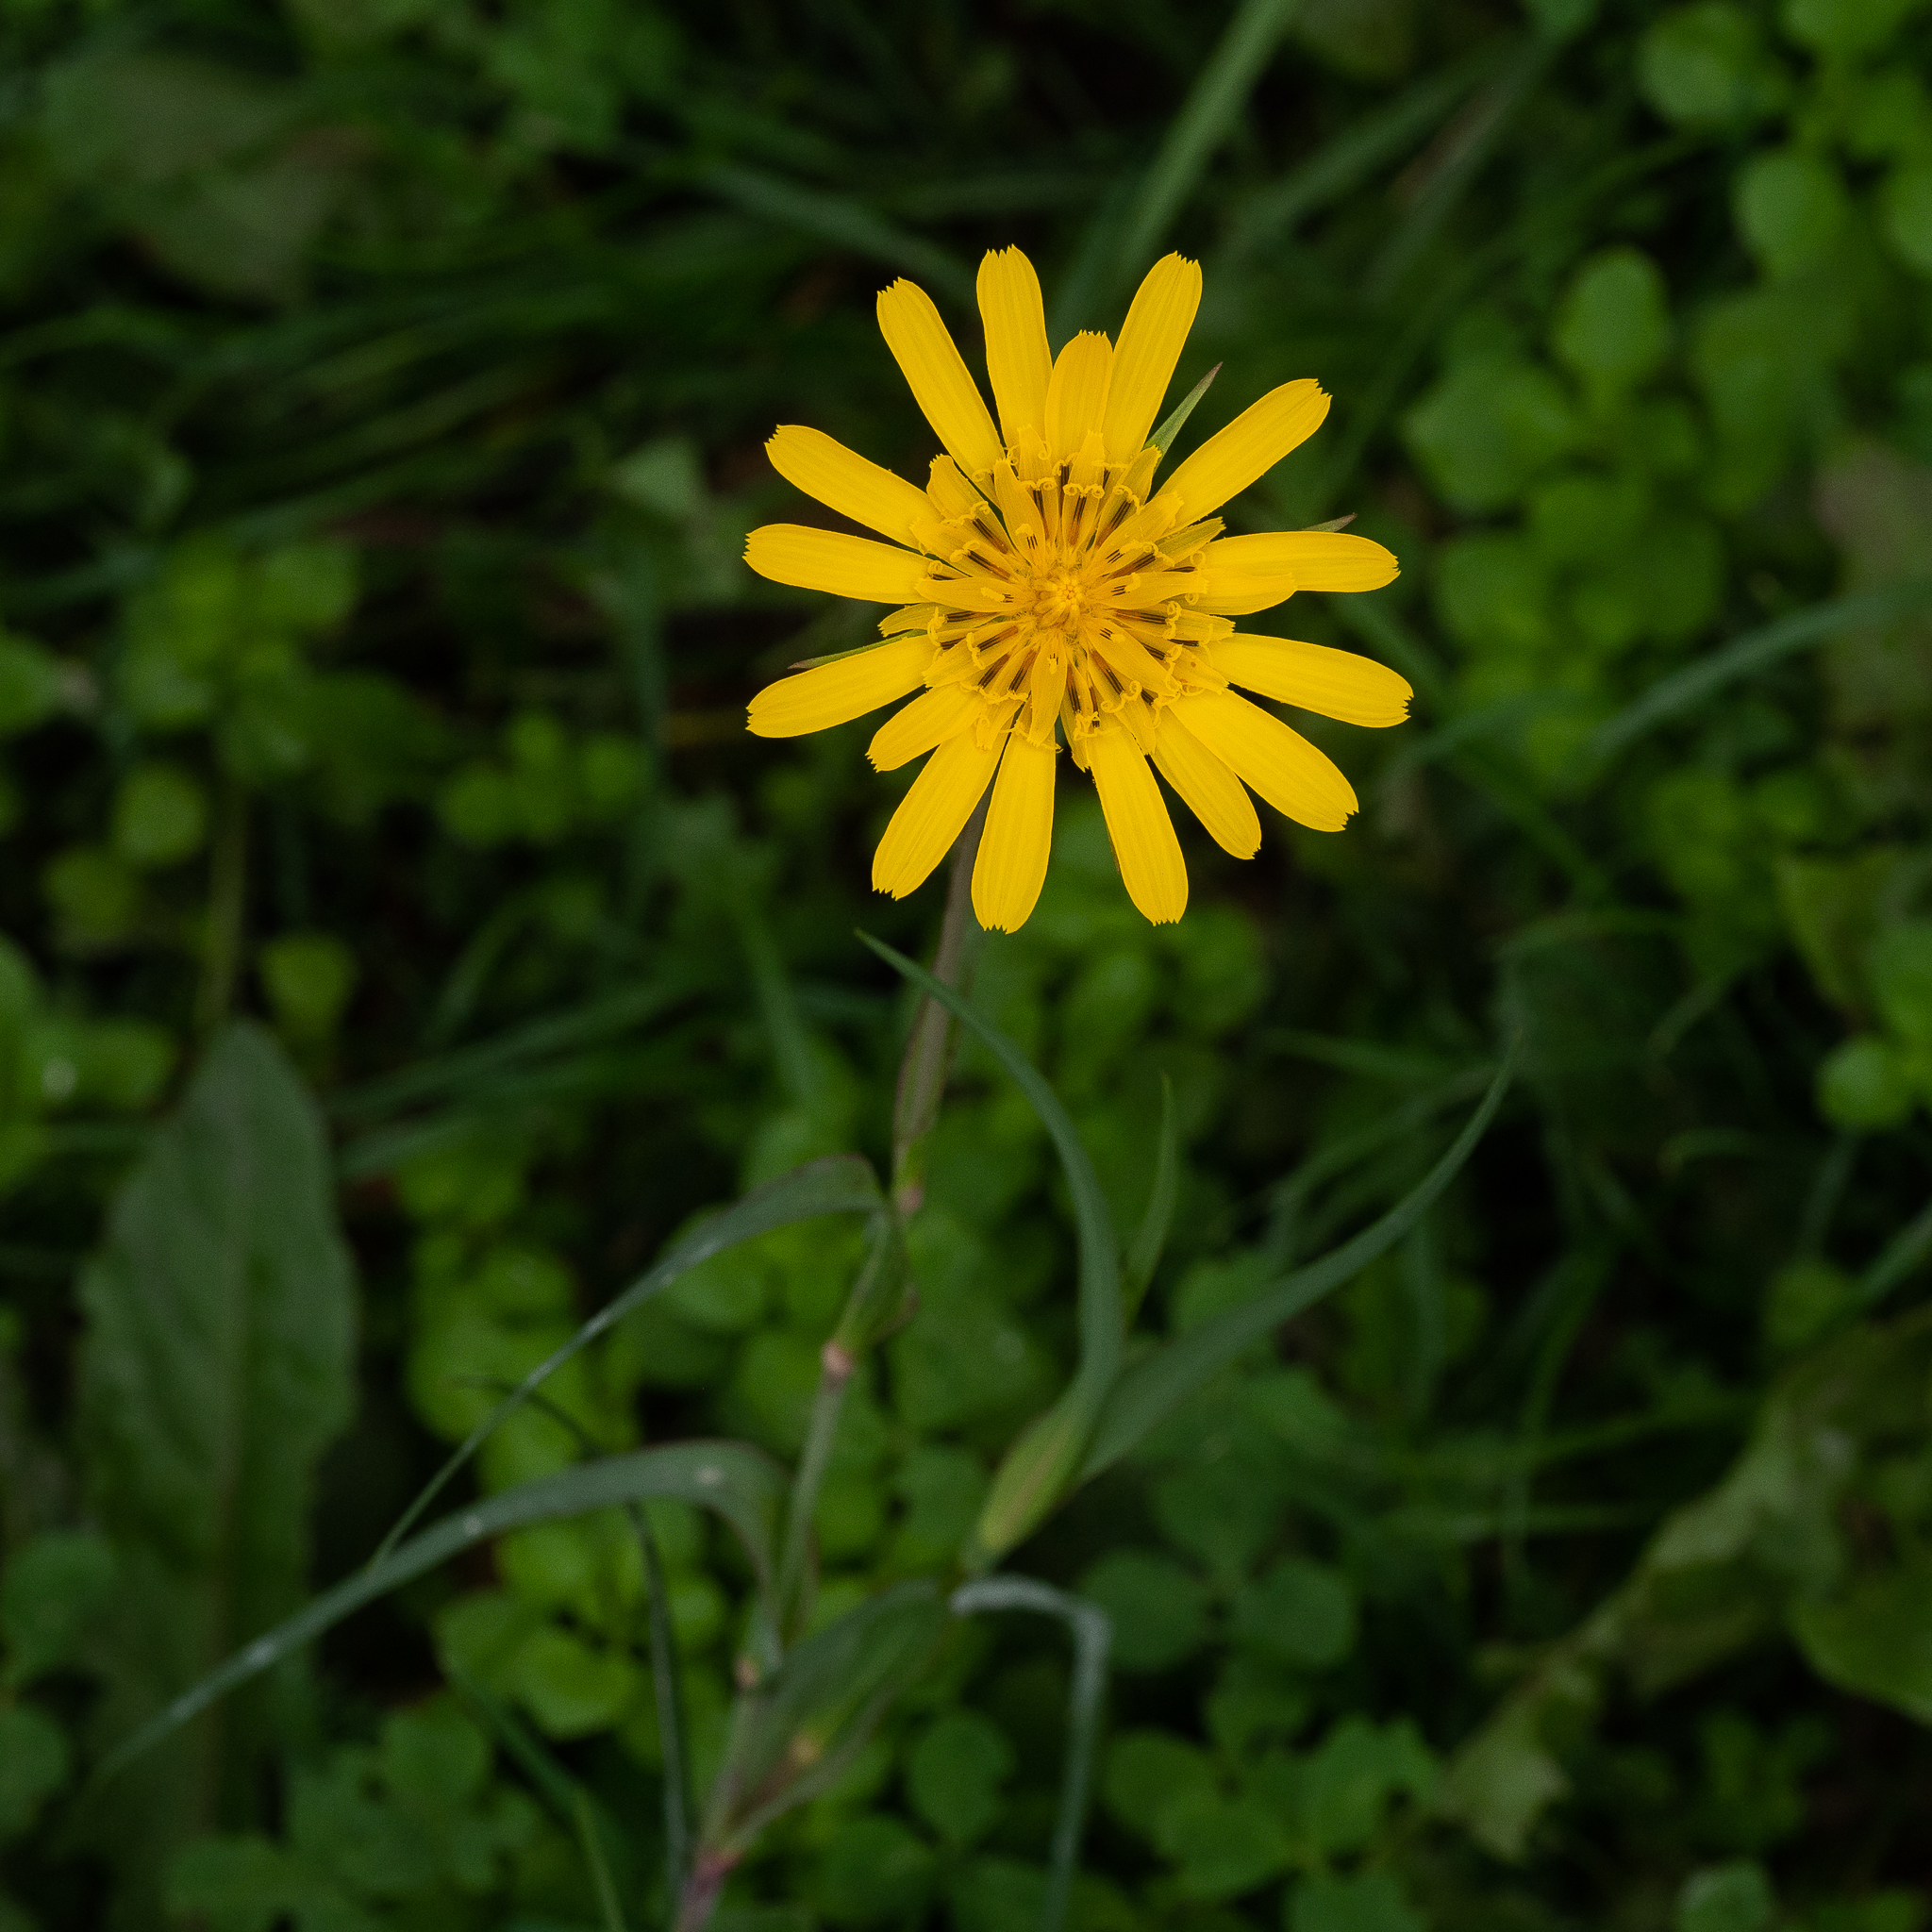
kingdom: Plantae
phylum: Tracheophyta
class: Magnoliopsida
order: Asterales
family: Asteraceae
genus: Tragopogon
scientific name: Tragopogon orientalis
